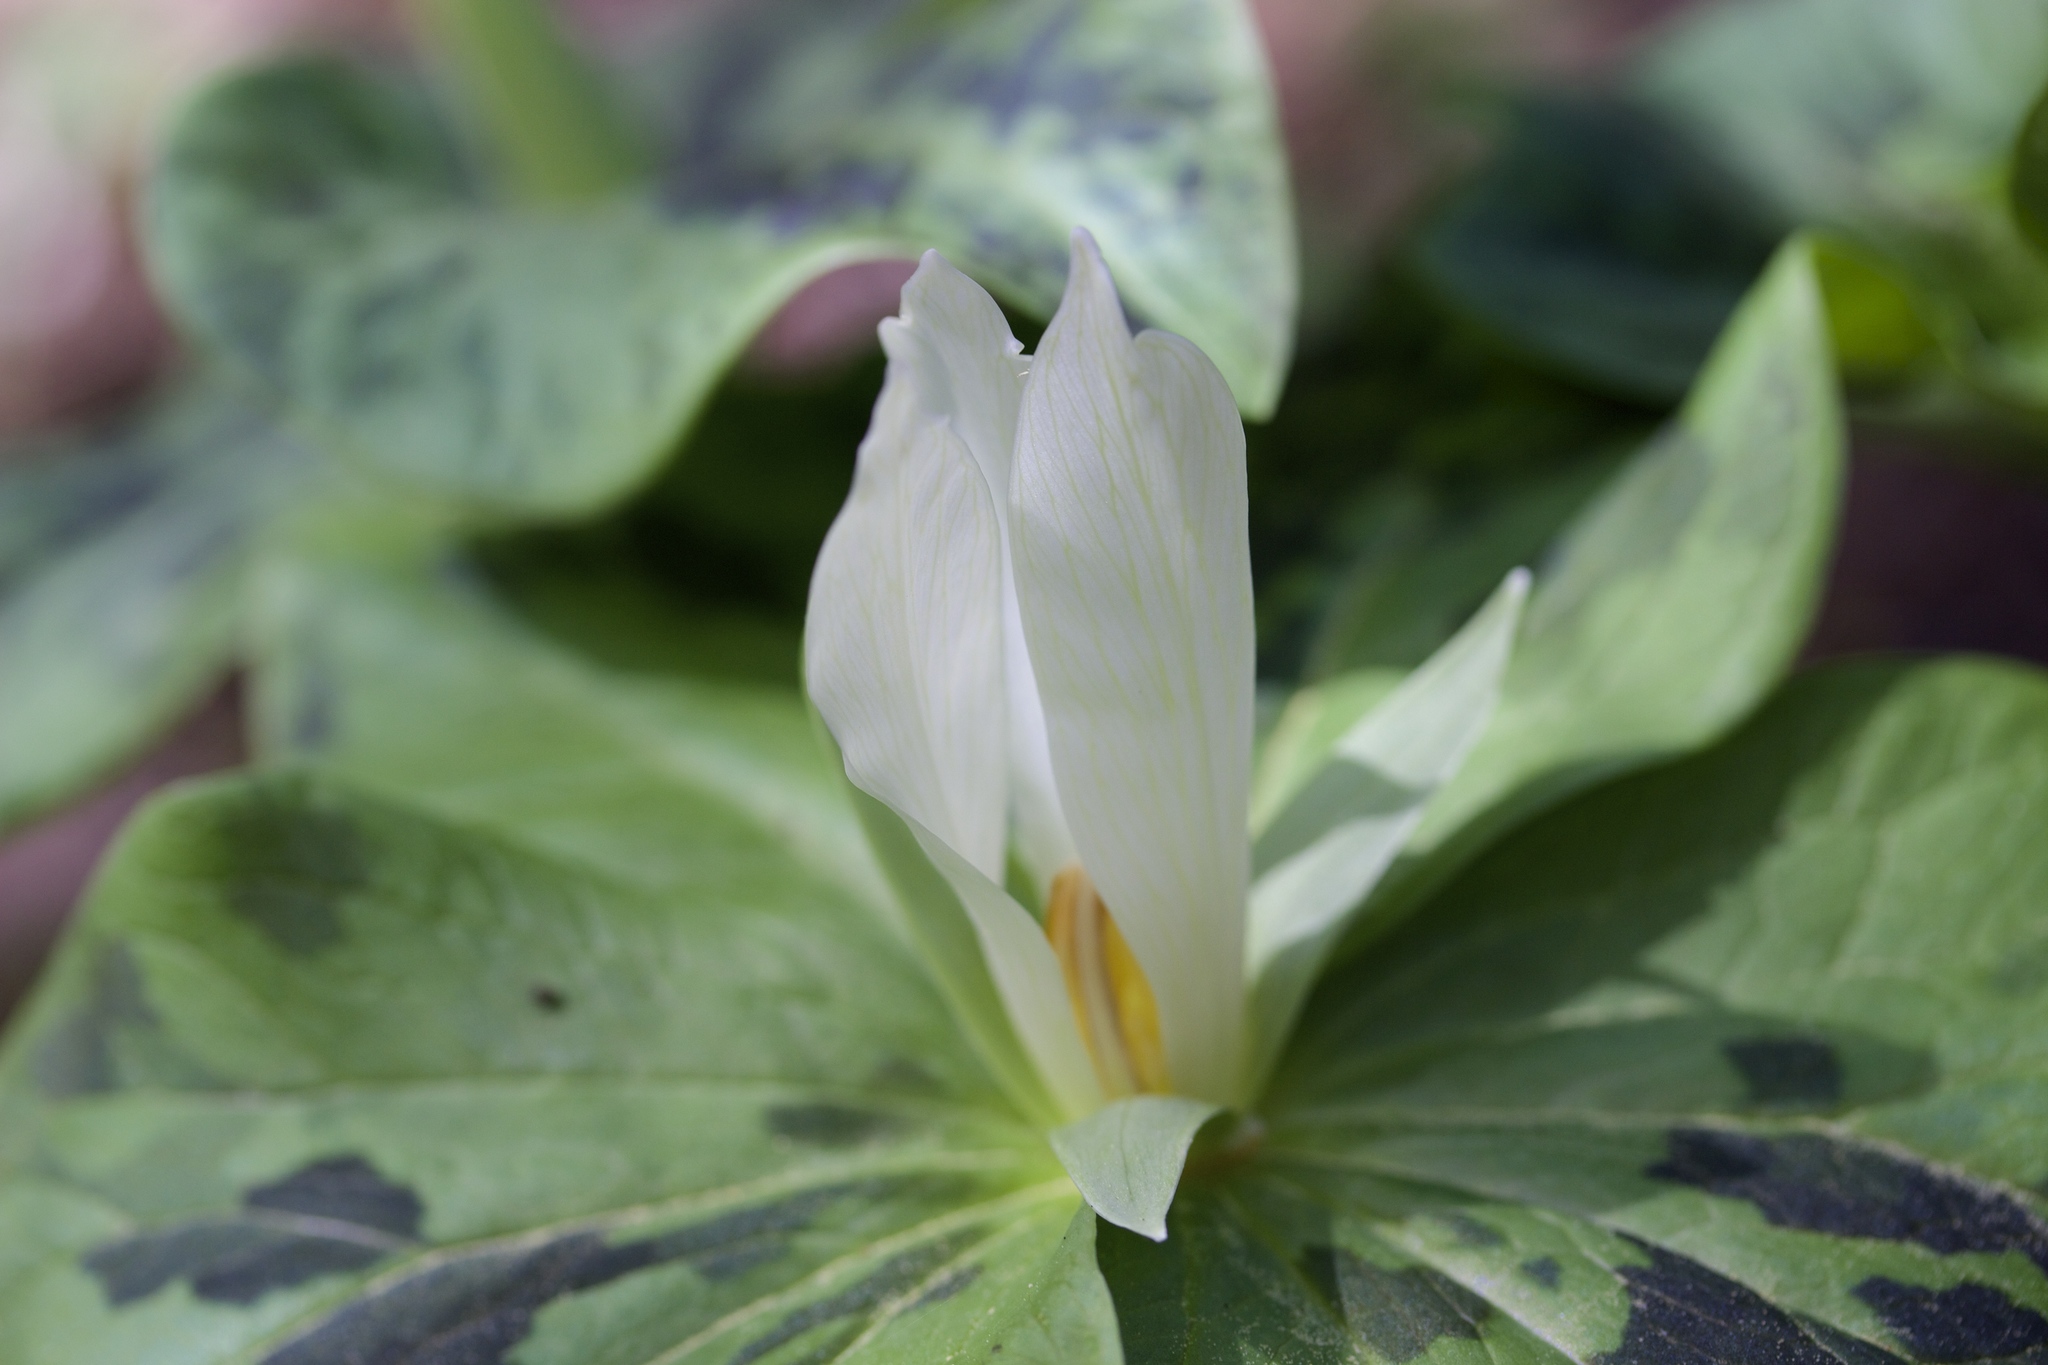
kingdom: Plantae
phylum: Tracheophyta
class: Liliopsida
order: Liliales
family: Melanthiaceae
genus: Trillium
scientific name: Trillium albidum
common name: Freeman's trillium
